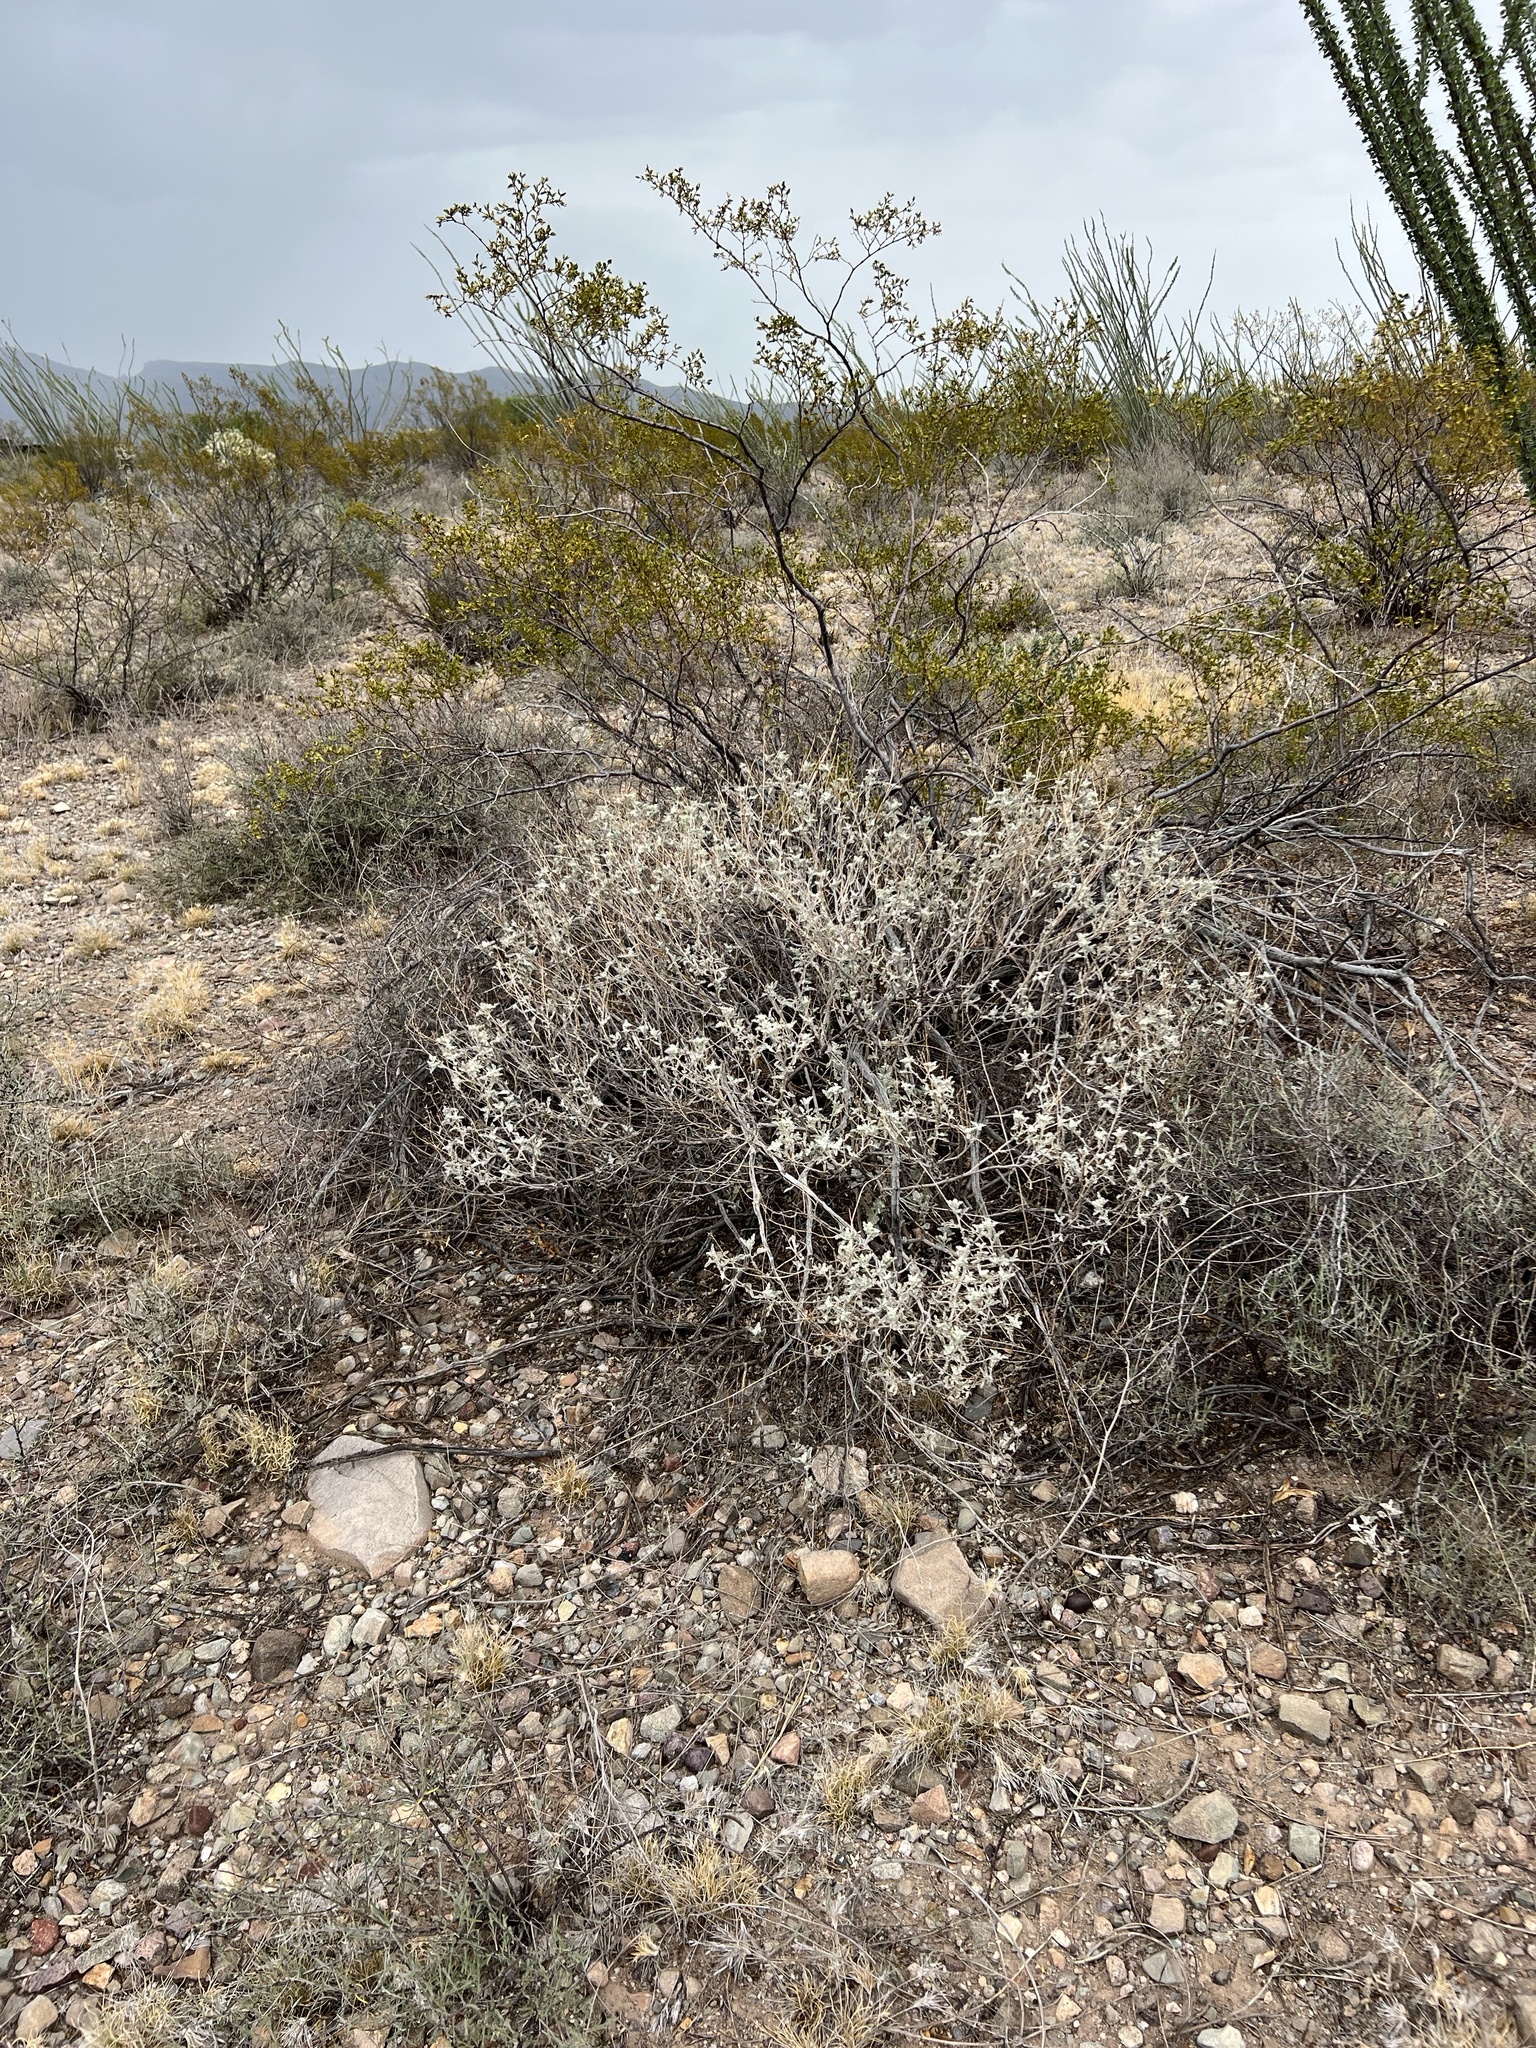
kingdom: Plantae
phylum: Tracheophyta
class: Magnoliopsida
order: Asterales
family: Asteraceae
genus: Parthenium
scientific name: Parthenium incanum
